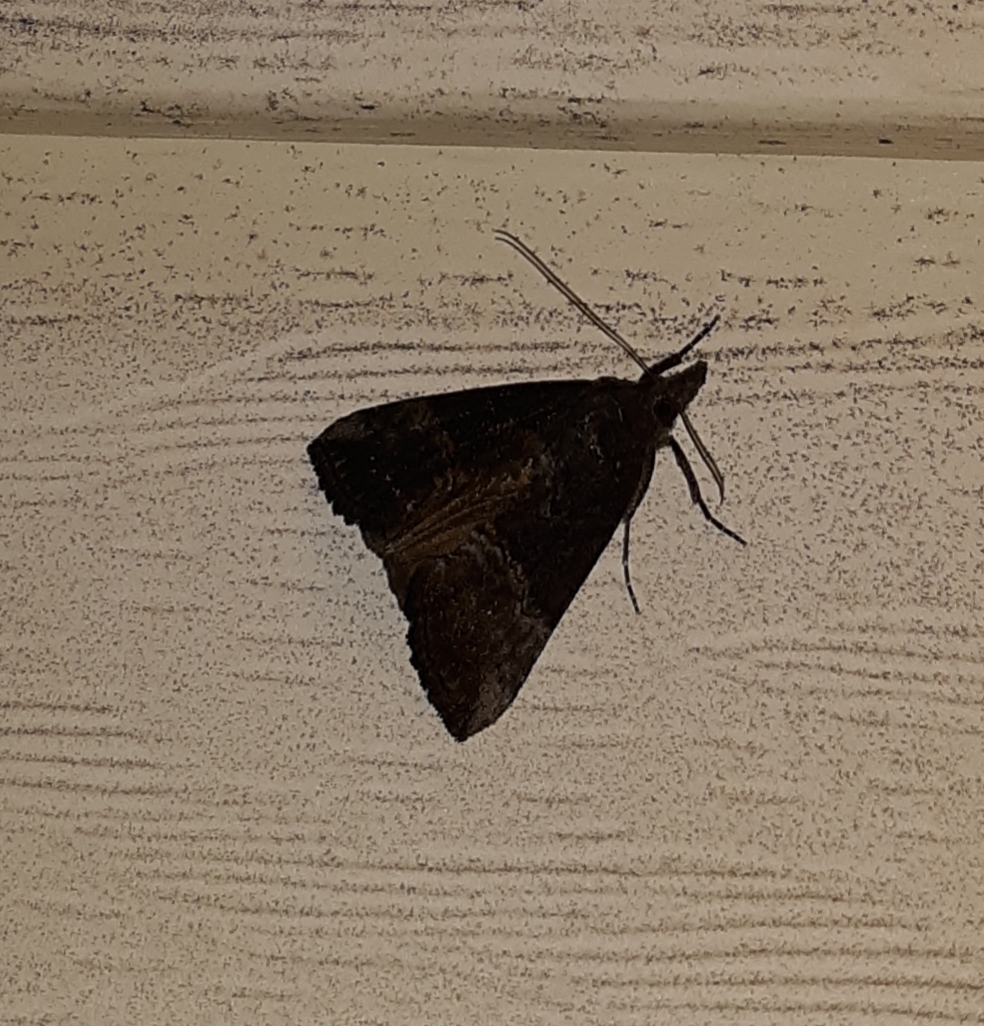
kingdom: Animalia
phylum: Arthropoda
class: Insecta
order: Lepidoptera
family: Erebidae
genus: Hypena
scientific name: Hypena scabra
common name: Green cloverworm
